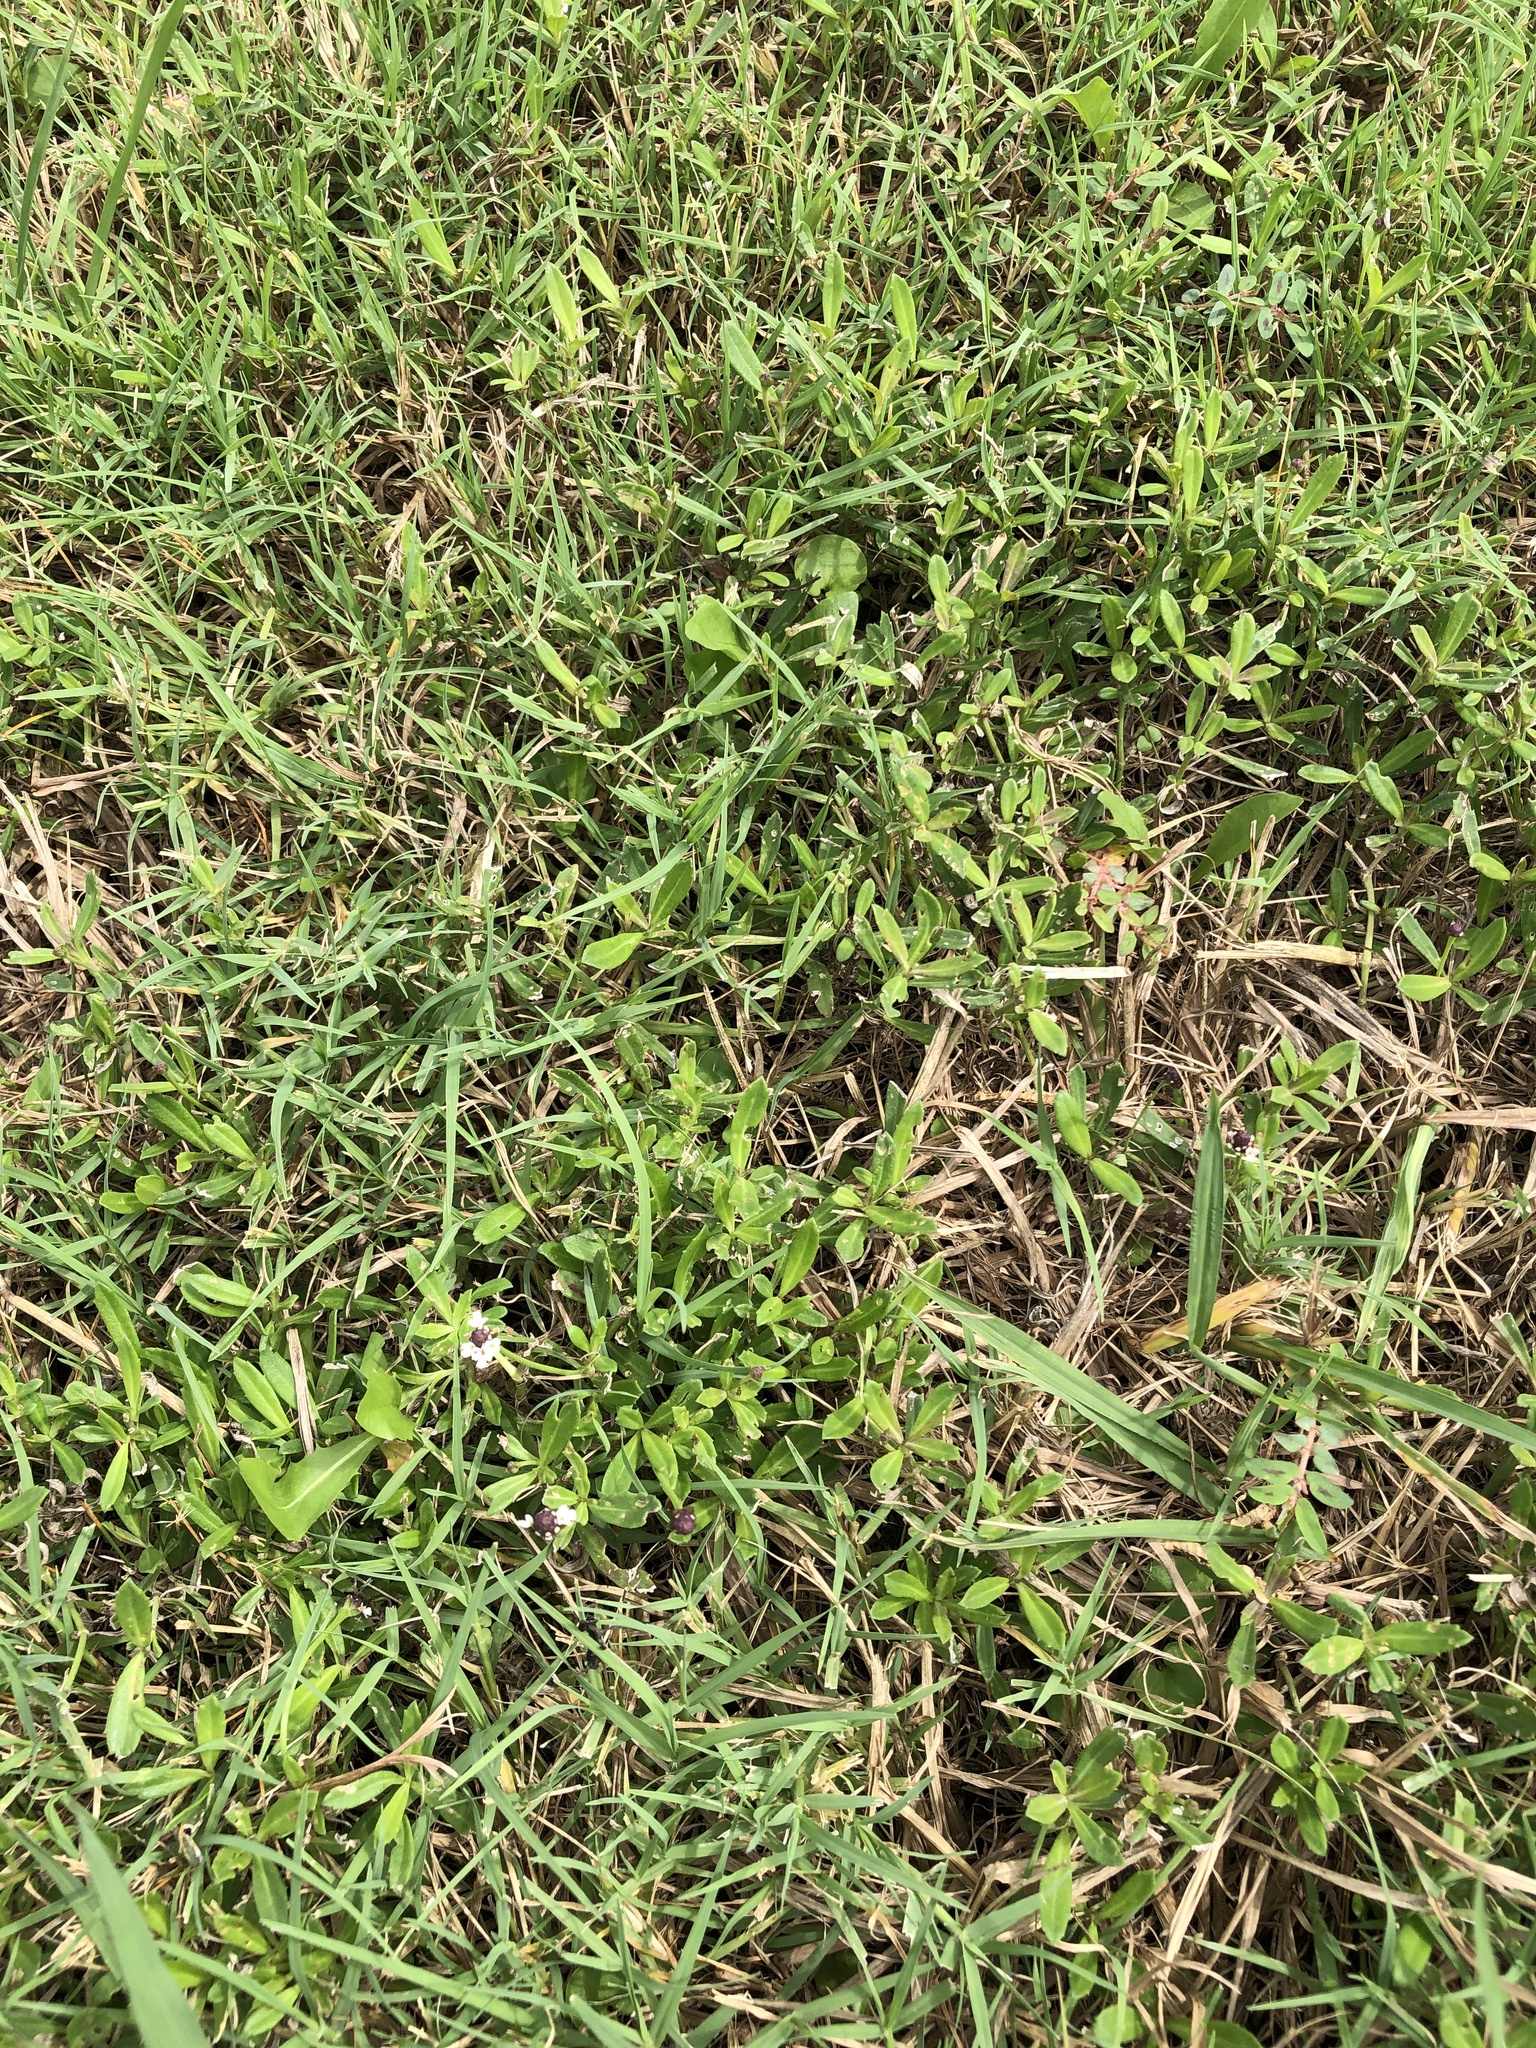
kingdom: Plantae
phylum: Tracheophyta
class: Magnoliopsida
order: Lamiales
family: Verbenaceae
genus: Phyla
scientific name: Phyla nodiflora
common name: Frogfruit
